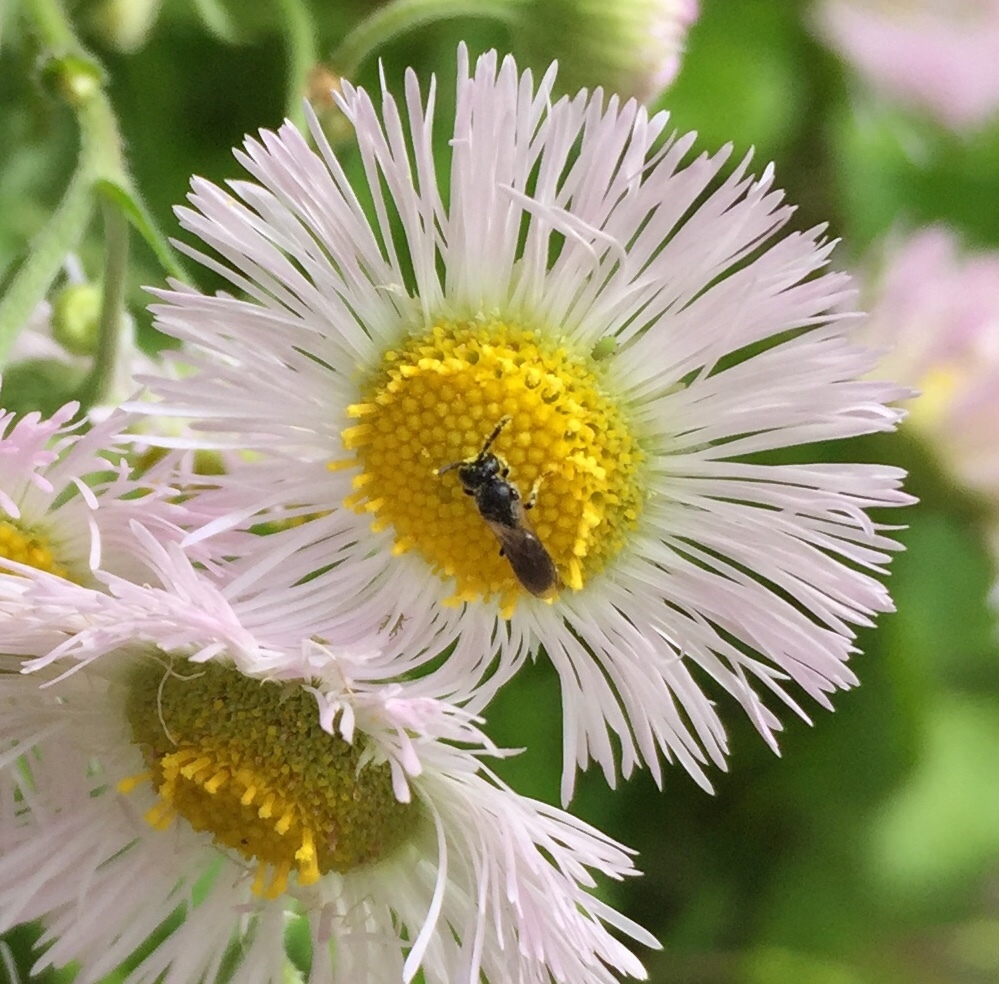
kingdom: Animalia
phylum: Arthropoda
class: Insecta
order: Hymenoptera
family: Colletidae
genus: Hylaeus
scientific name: Hylaeus mesillae
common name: Mesilla masked bee
